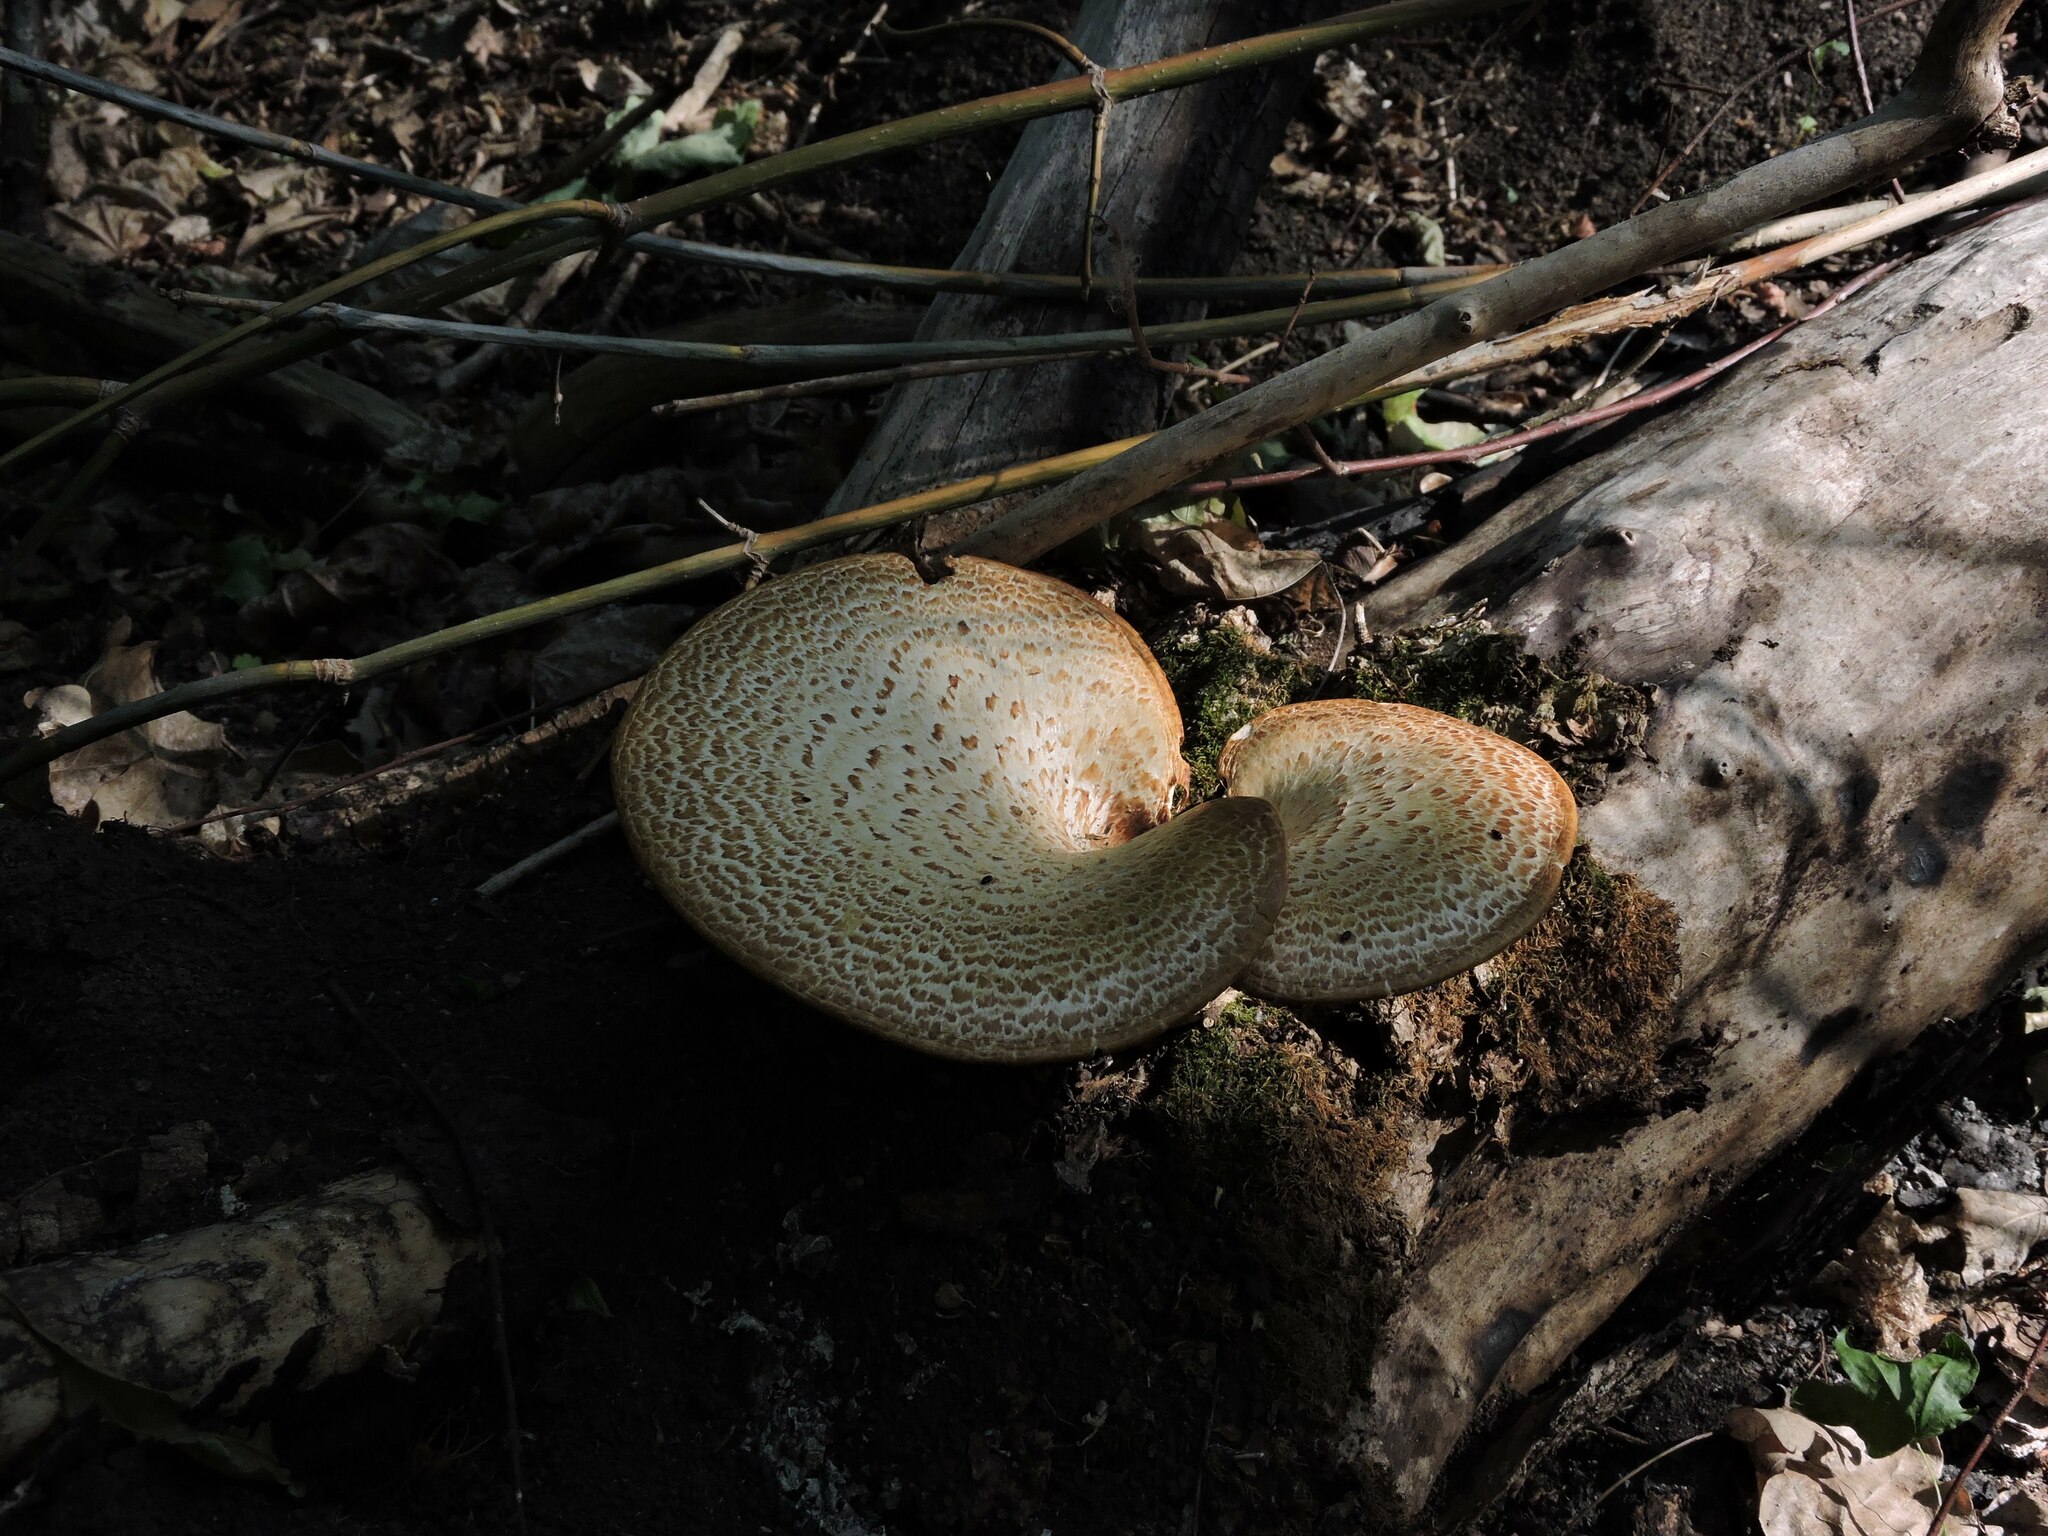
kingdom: Fungi
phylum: Basidiomycota
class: Agaricomycetes
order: Polyporales
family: Polyporaceae
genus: Cerioporus
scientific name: Cerioporus squamosus
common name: Dryad's saddle
